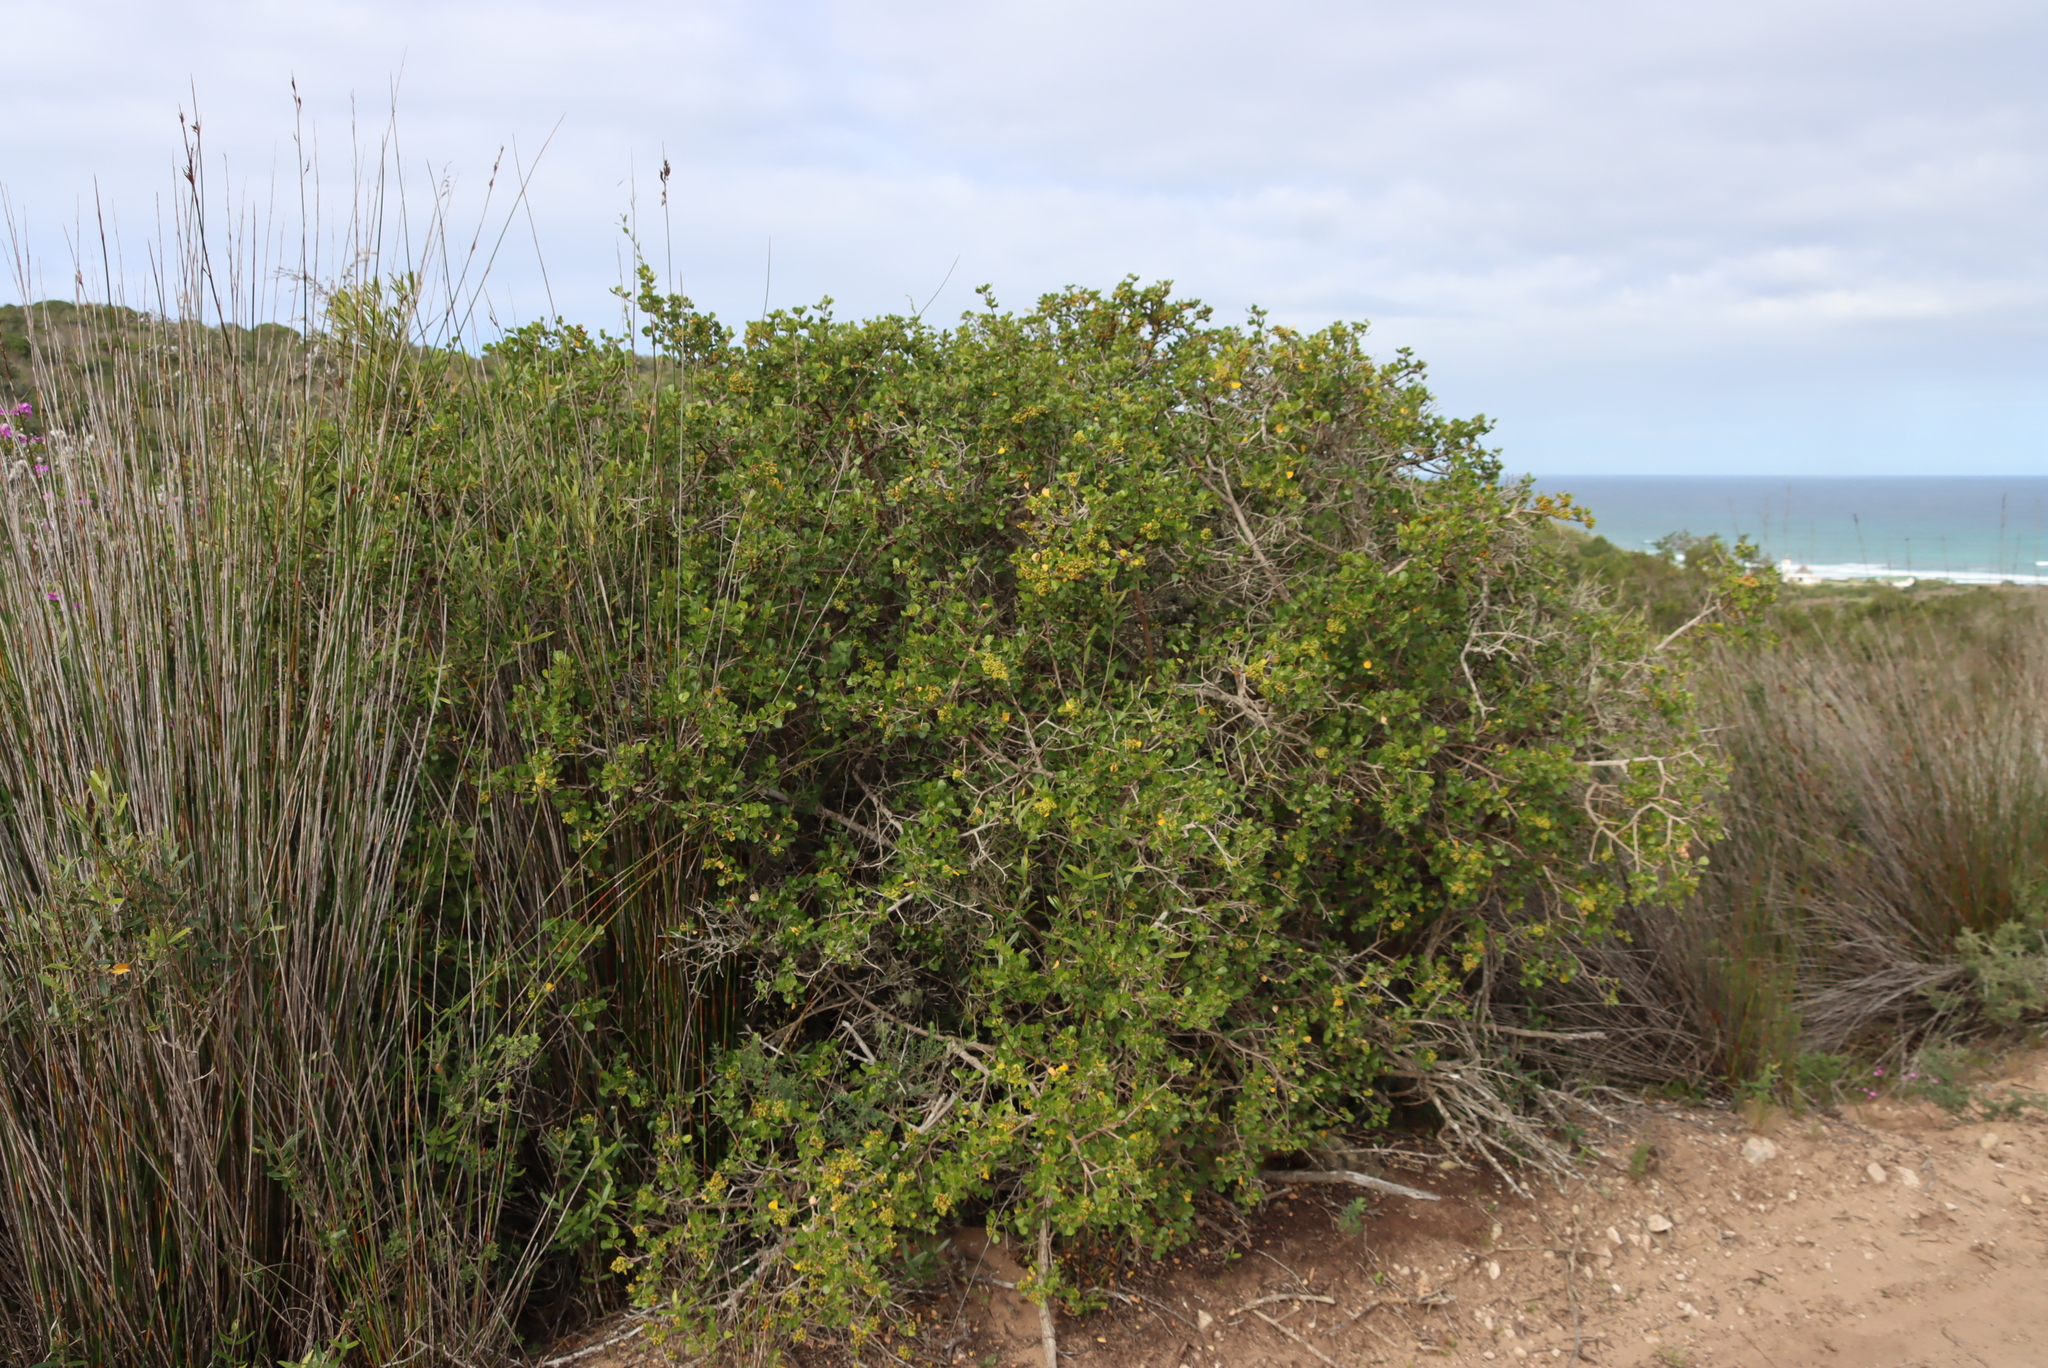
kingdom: Plantae
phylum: Tracheophyta
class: Magnoliopsida
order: Sapindales
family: Anacardiaceae
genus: Searsia
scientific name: Searsia glauca
